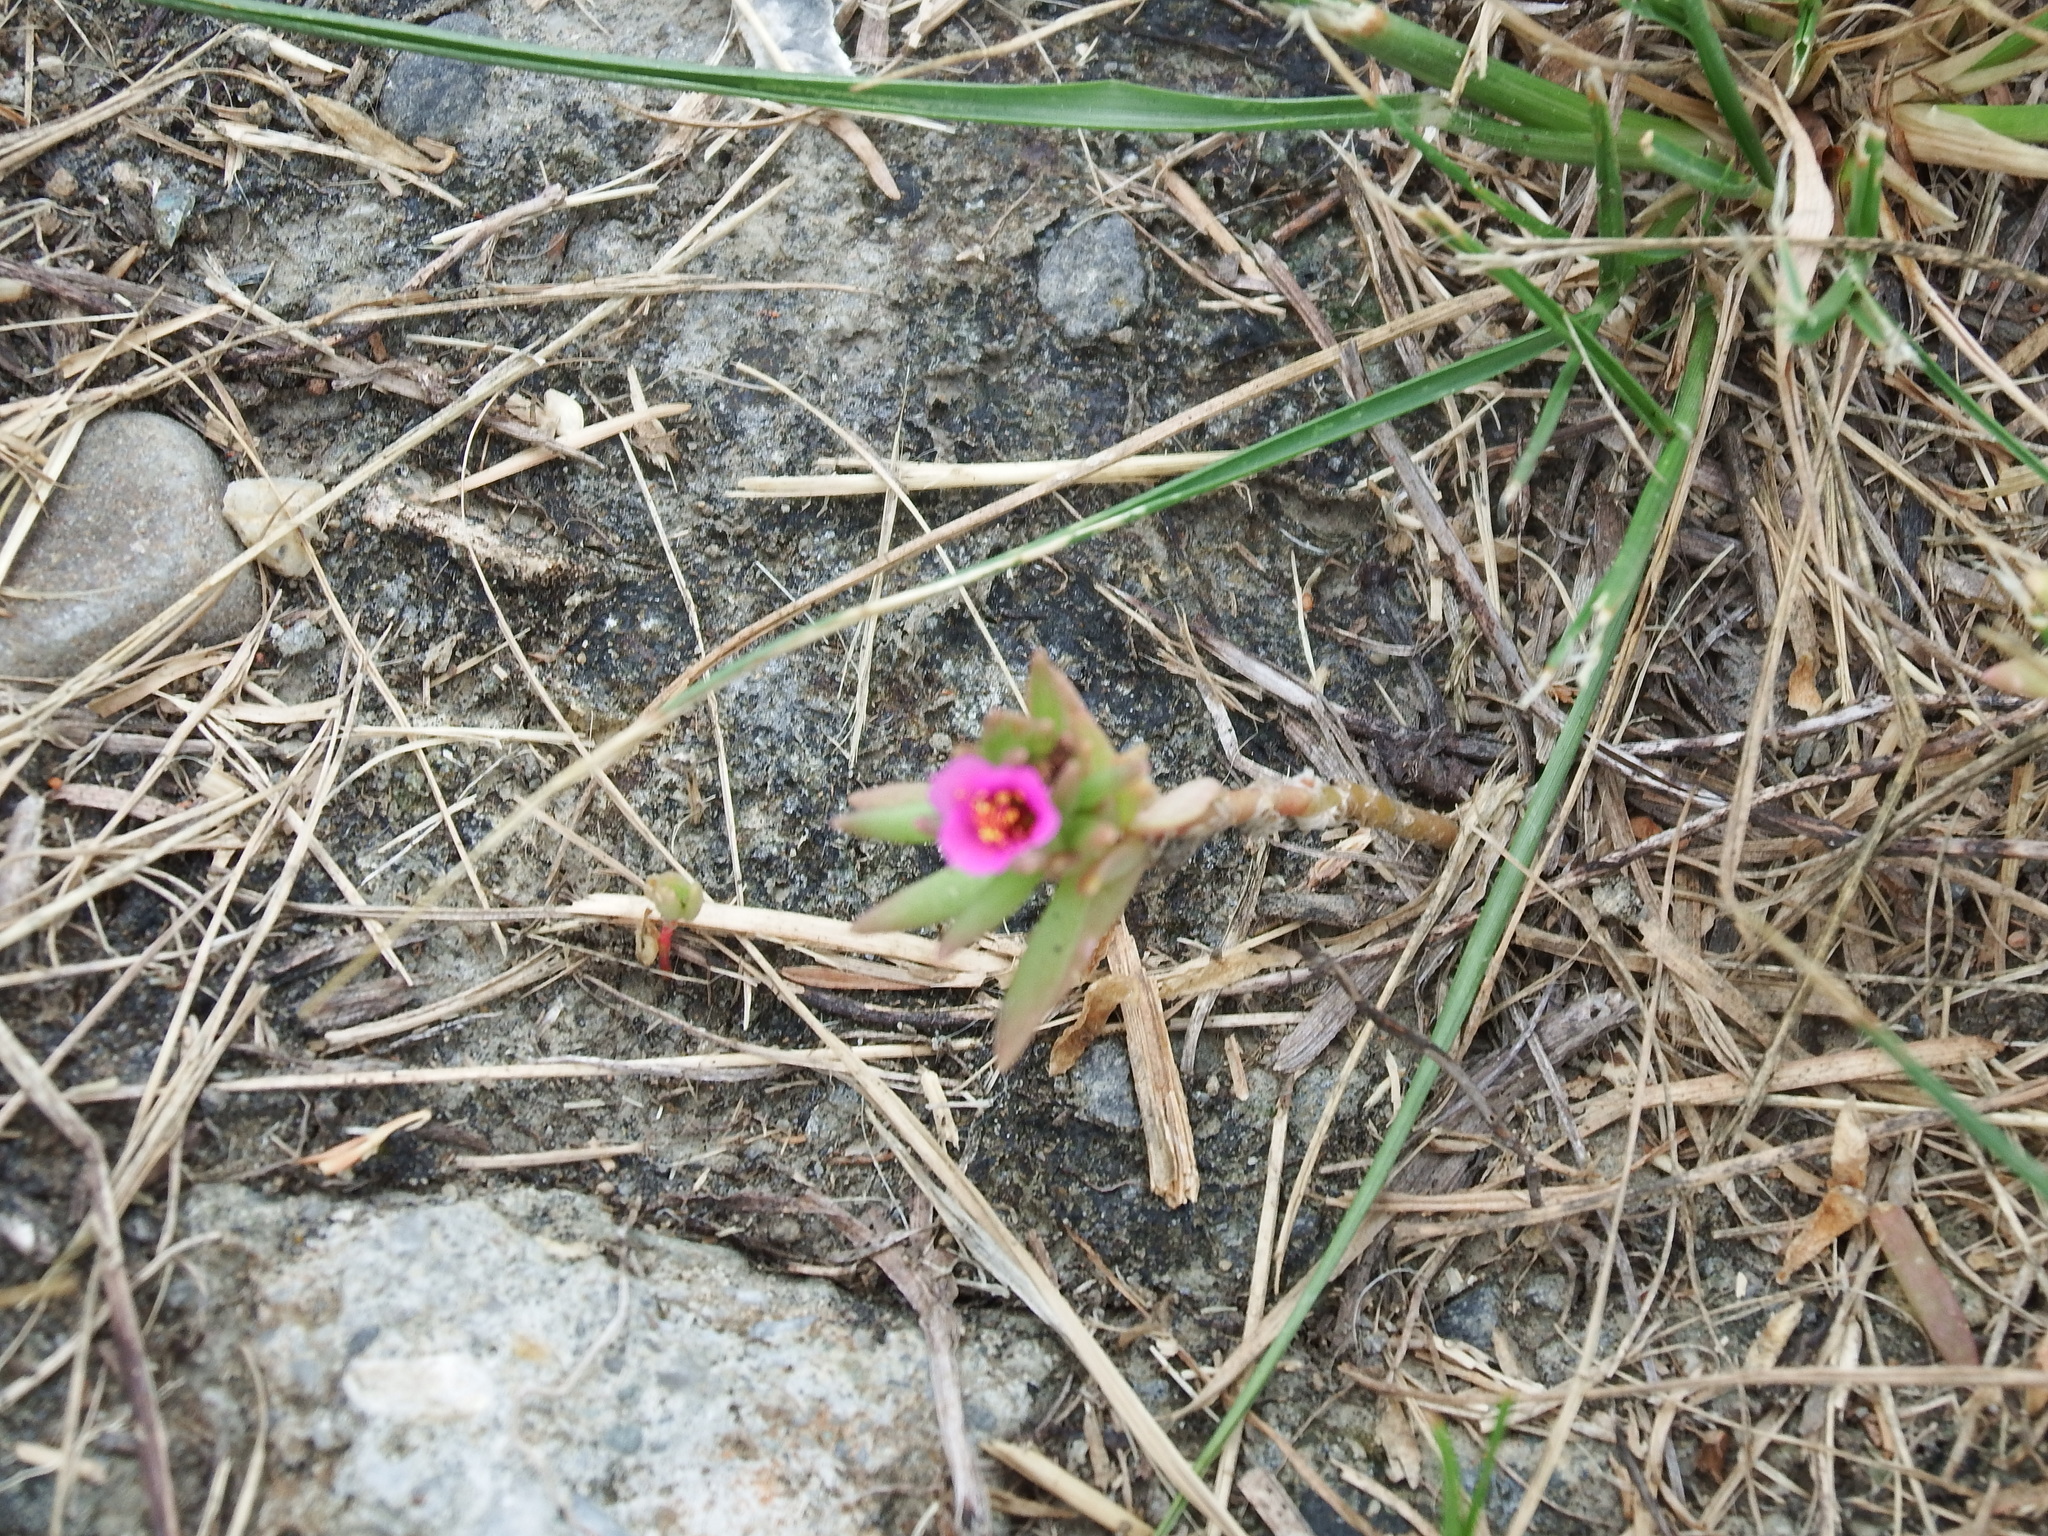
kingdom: Plantae
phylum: Tracheophyta
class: Magnoliopsida
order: Caryophyllales
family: Portulacaceae
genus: Portulaca
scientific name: Portulaca pilosa
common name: Kiss me quick
